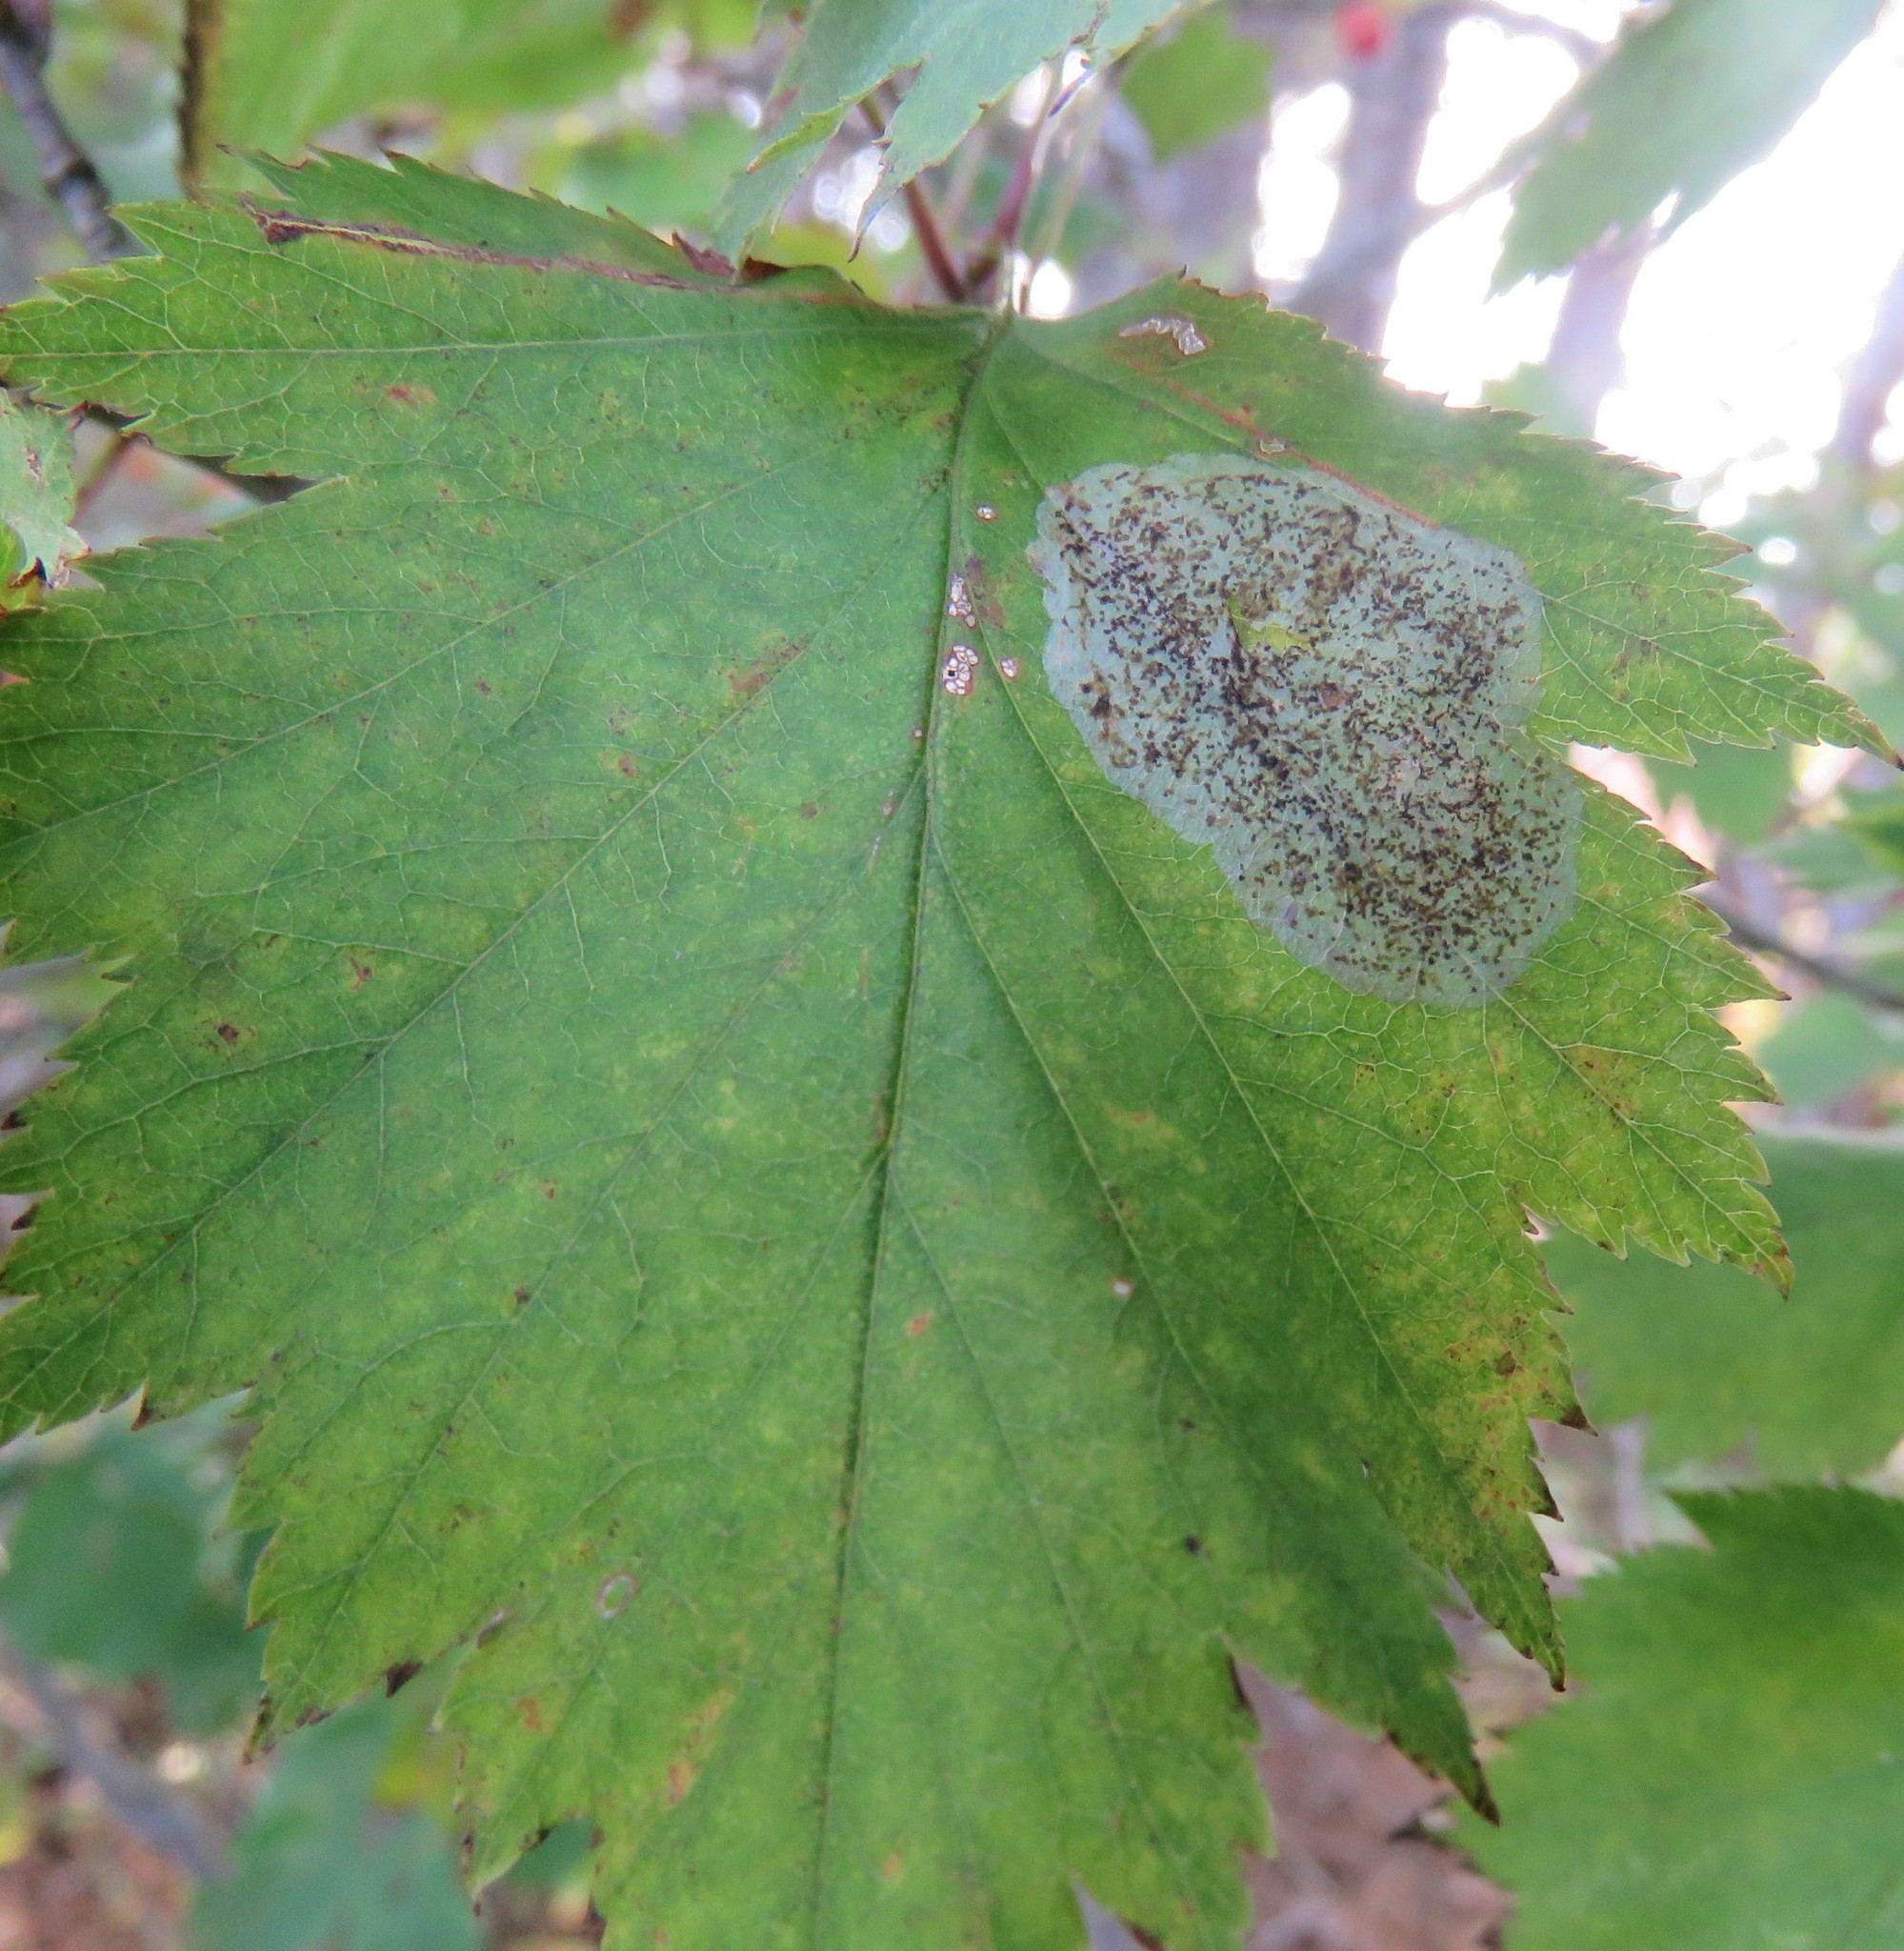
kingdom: Animalia
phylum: Arthropoda
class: Insecta
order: Lepidoptera
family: Gracillariidae
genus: Parornix
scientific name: Parornix inusitatumella
